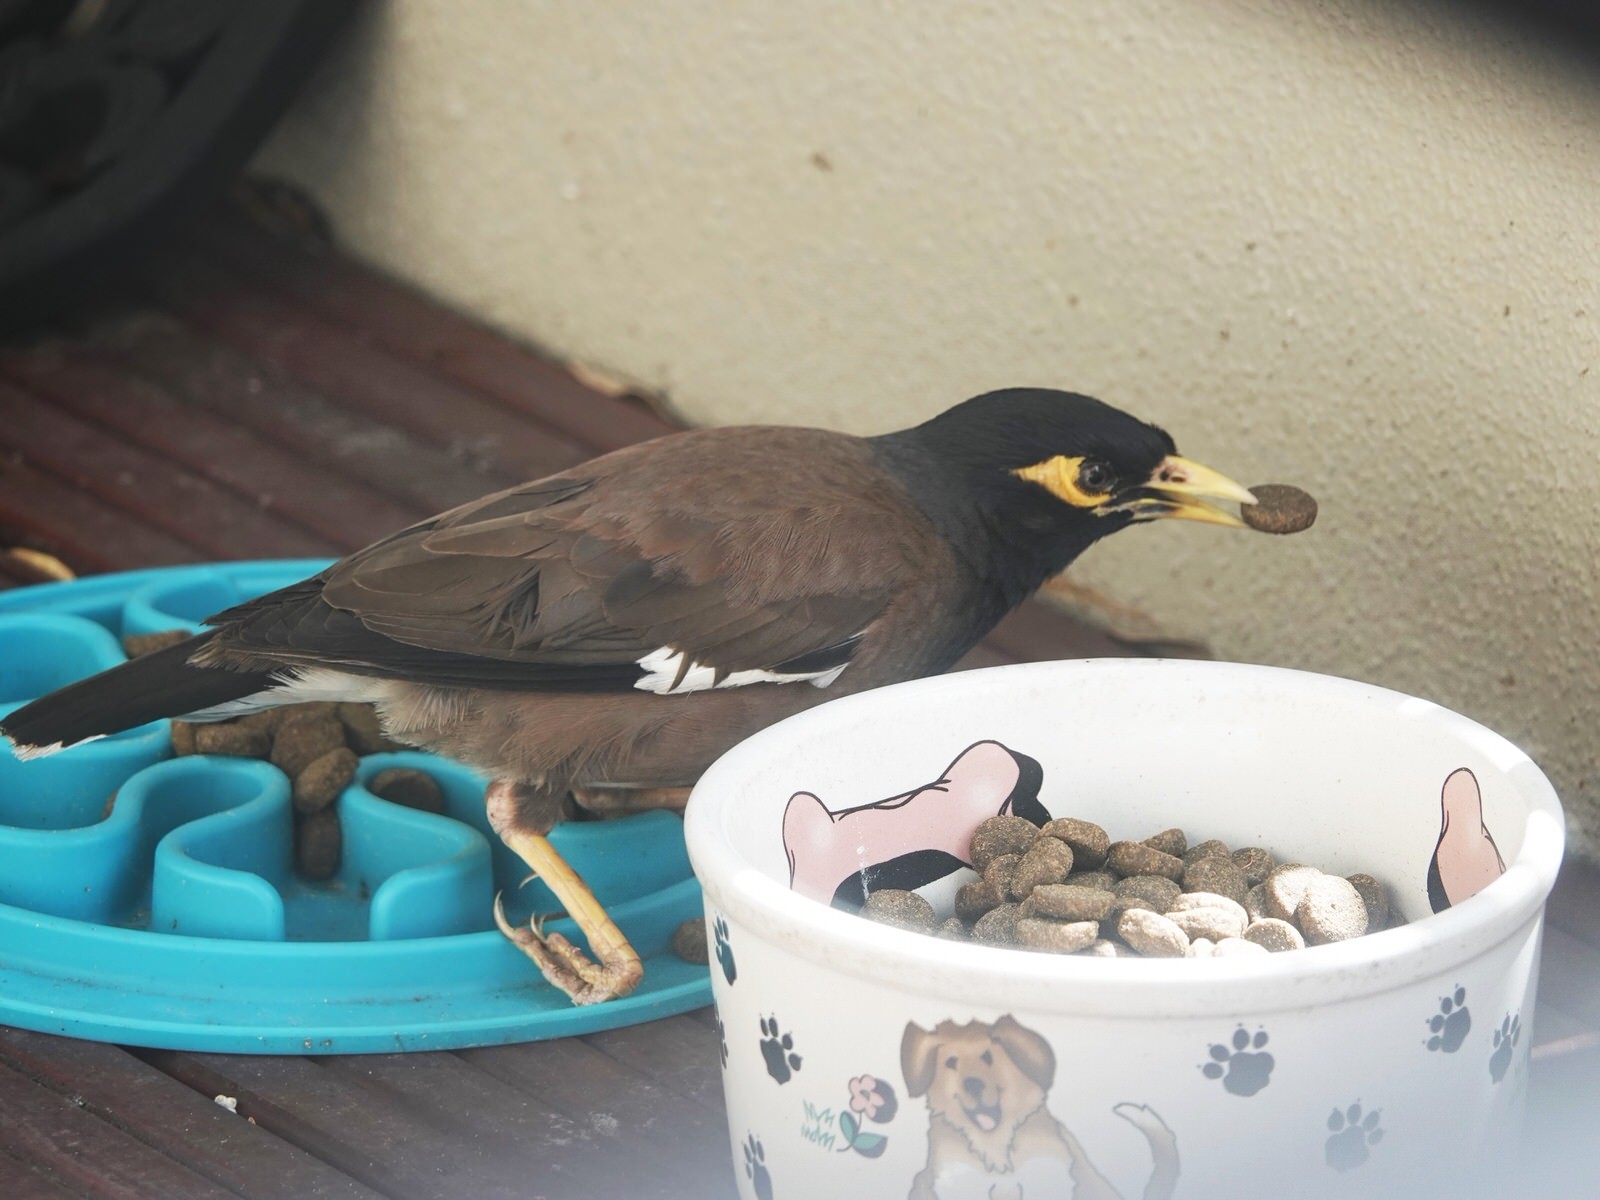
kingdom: Animalia
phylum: Chordata
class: Aves
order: Passeriformes
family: Sturnidae
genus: Acridotheres
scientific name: Acridotheres tristis
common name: Common myna
